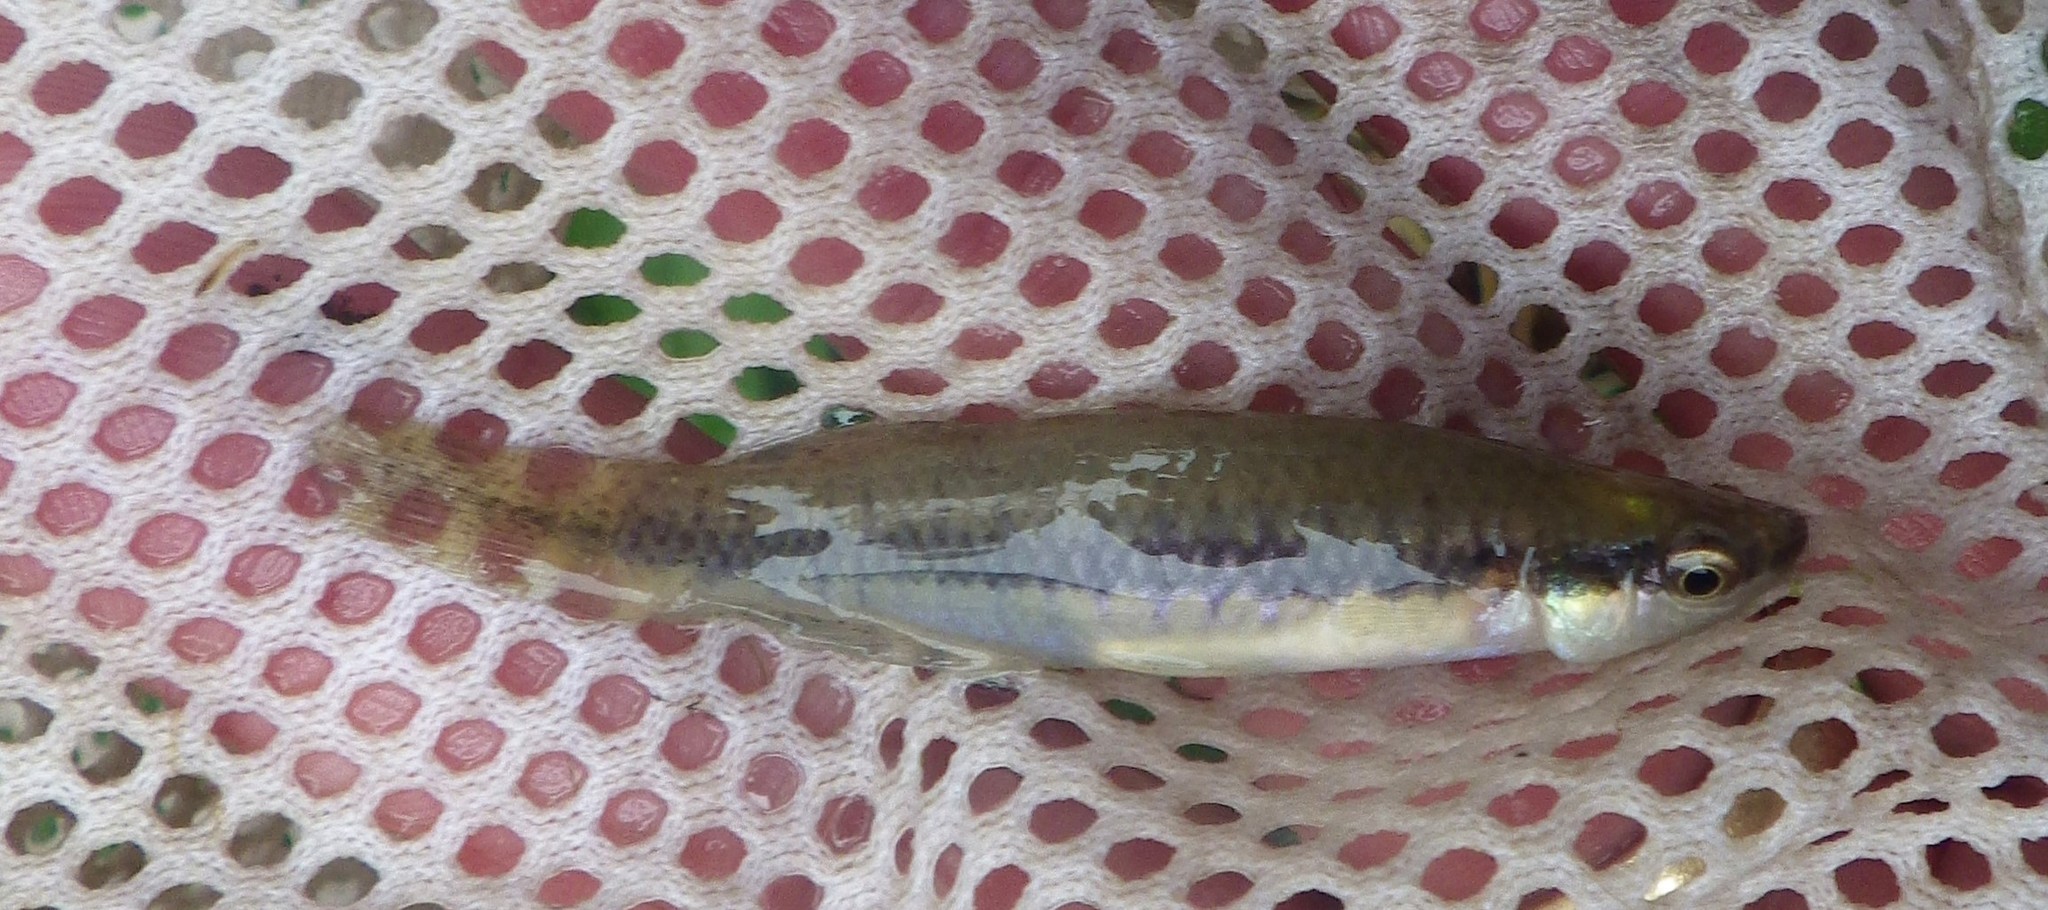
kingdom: Animalia
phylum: Chordata
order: Cyprinodontiformes
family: Fundulidae
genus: Fundulus
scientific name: Fundulus notatus
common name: Blackstripe topminnow
